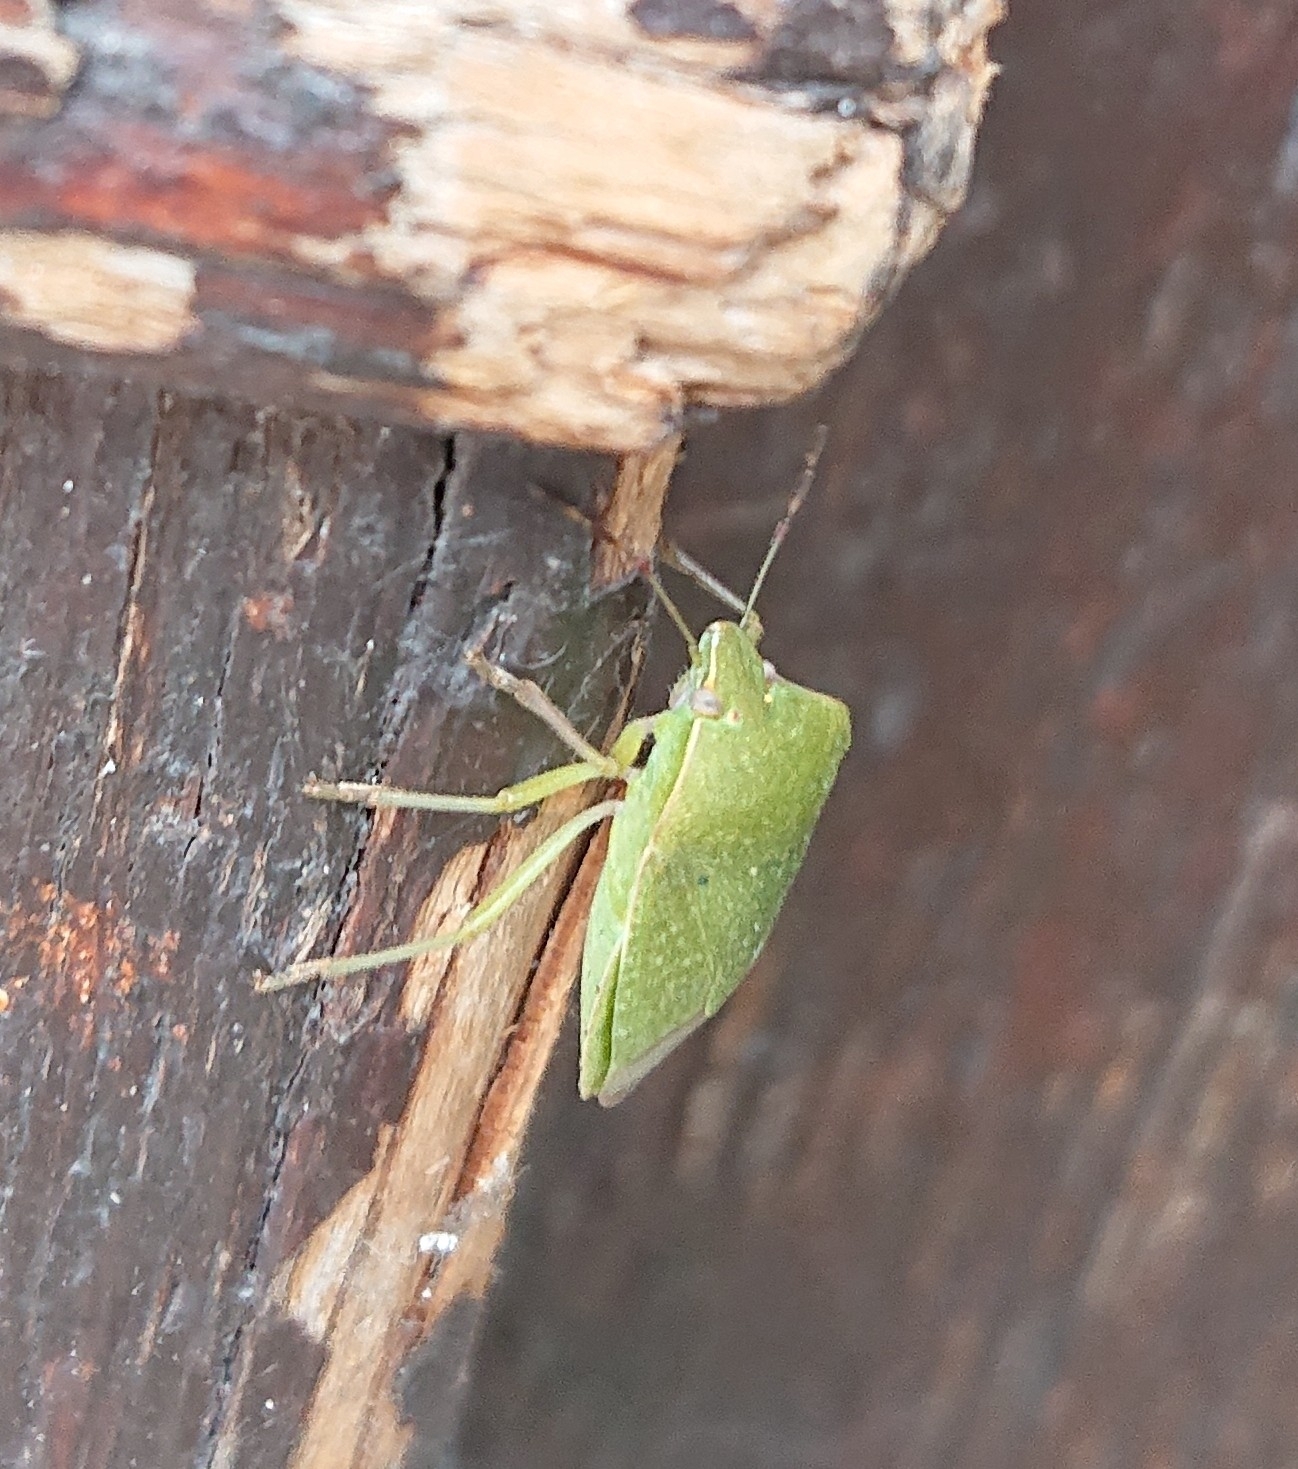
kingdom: Animalia
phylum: Arthropoda
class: Insecta
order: Hemiptera
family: Pentatomidae
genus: Nezara
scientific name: Nezara viridula
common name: Southern green stink bug
